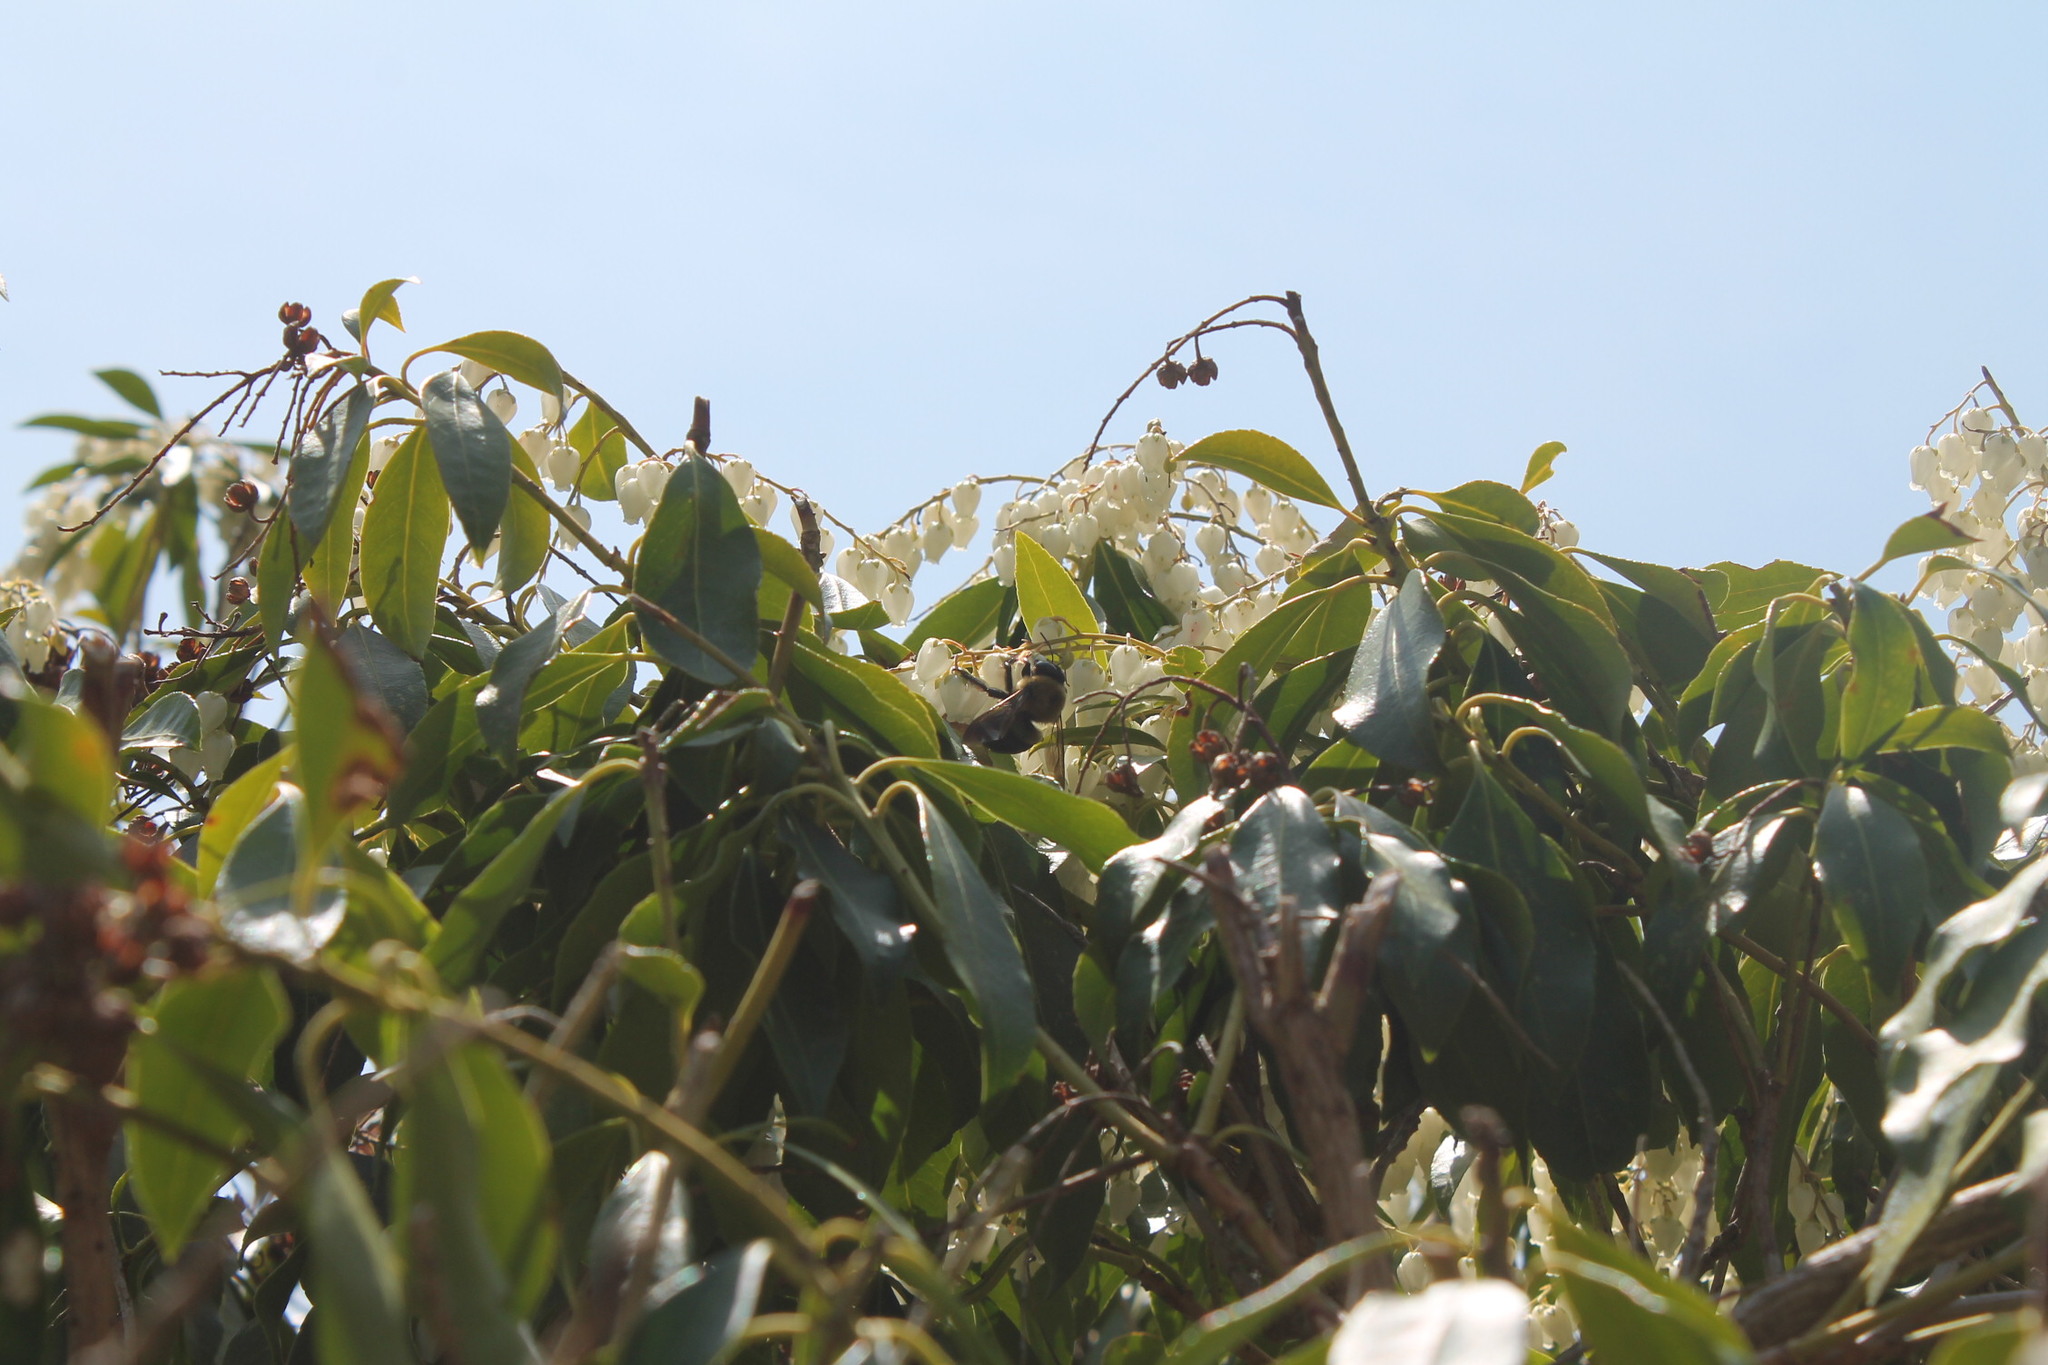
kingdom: Animalia
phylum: Arthropoda
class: Insecta
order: Hymenoptera
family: Apidae
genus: Xylocopa
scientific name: Xylocopa virginica
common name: Carpenter bee
